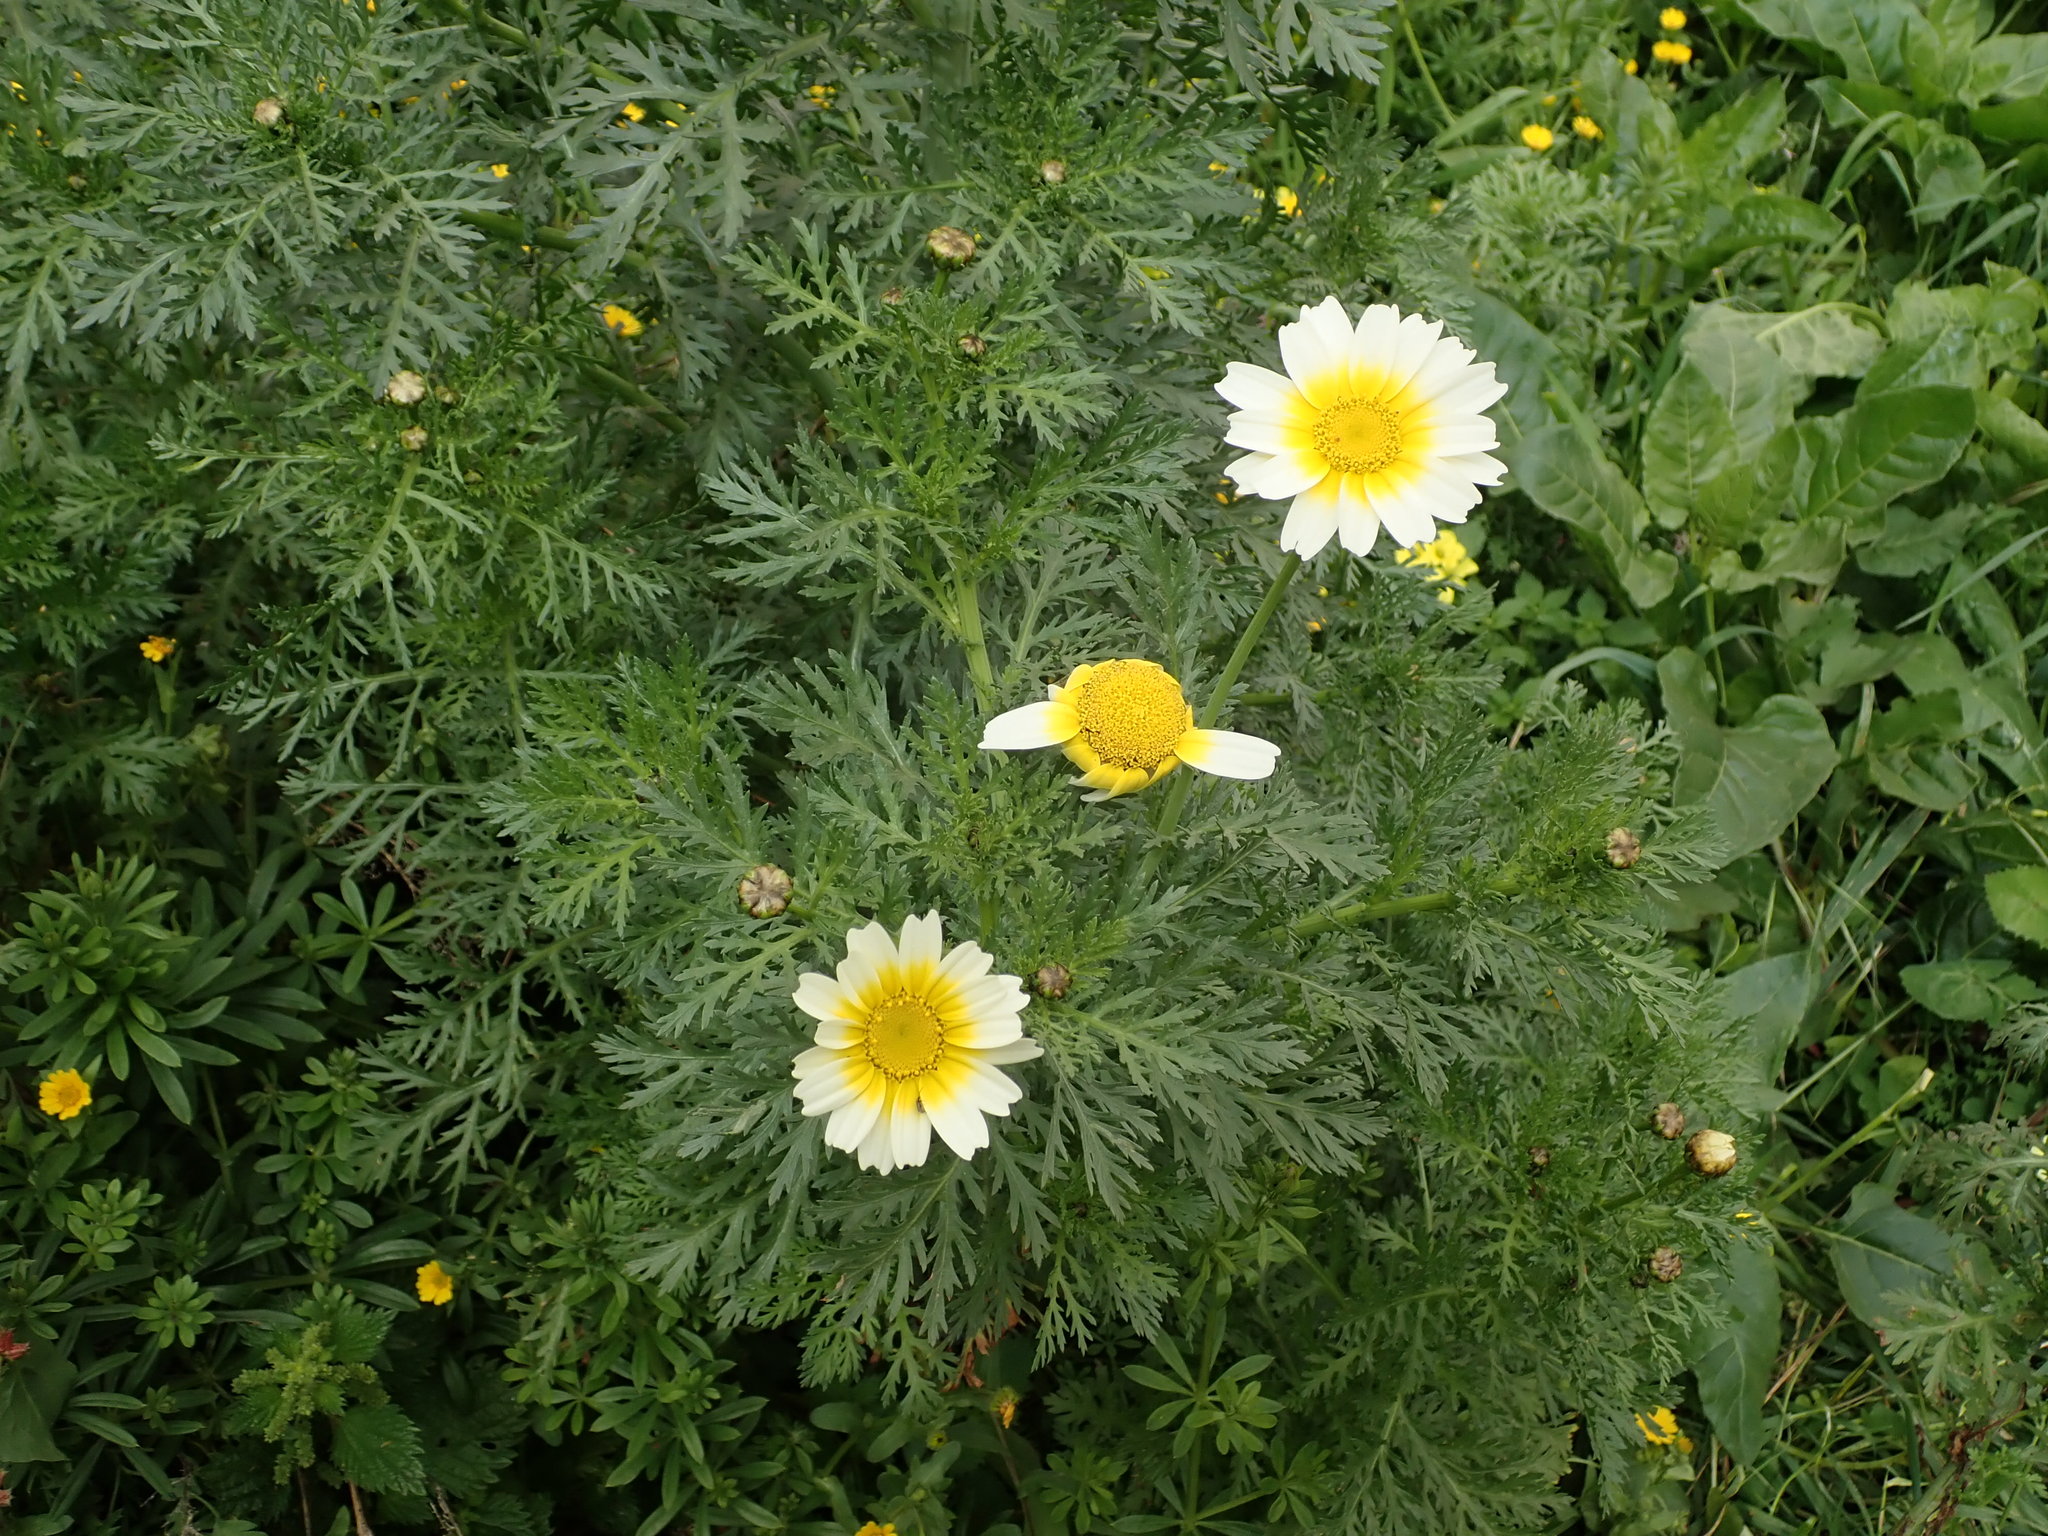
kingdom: Plantae
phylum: Tracheophyta
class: Magnoliopsida
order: Asterales
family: Asteraceae
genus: Glebionis
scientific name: Glebionis coronaria
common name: Crowndaisy
